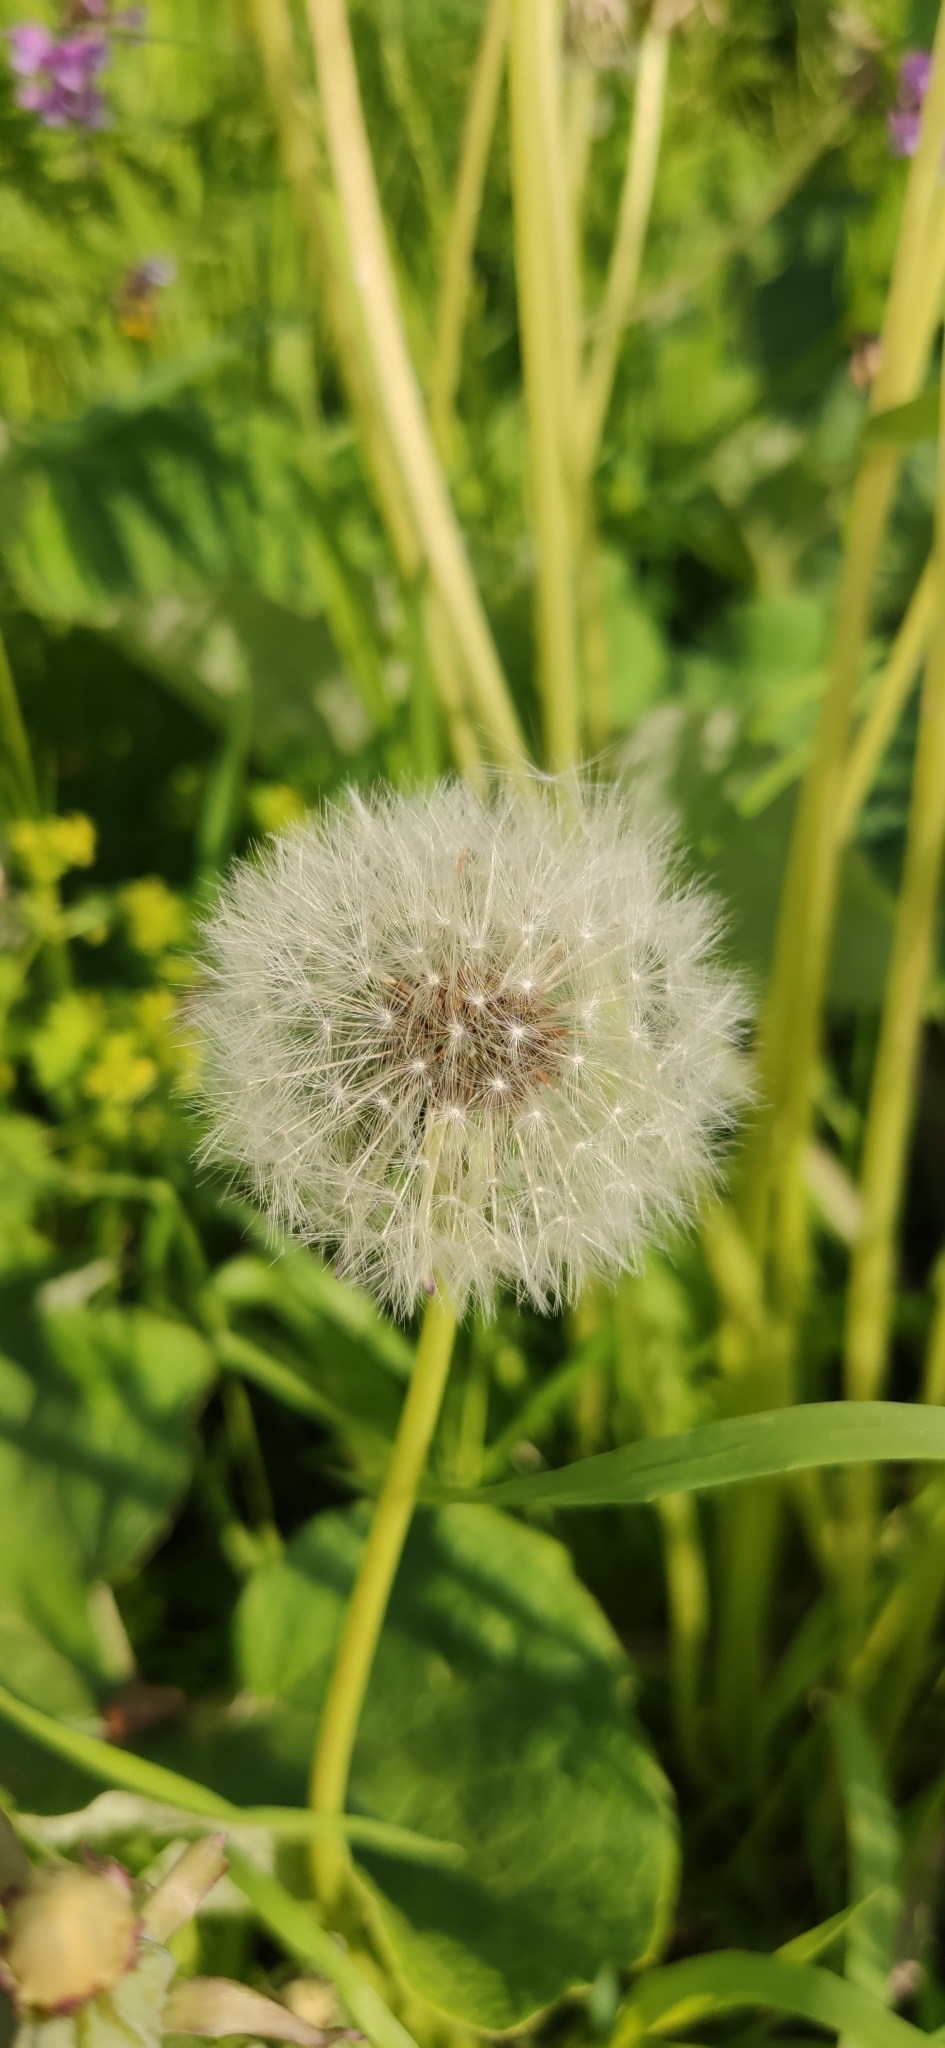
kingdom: Plantae
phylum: Tracheophyta
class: Magnoliopsida
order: Asterales
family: Asteraceae
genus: Taraxacum
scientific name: Taraxacum officinale
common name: Common dandelion
